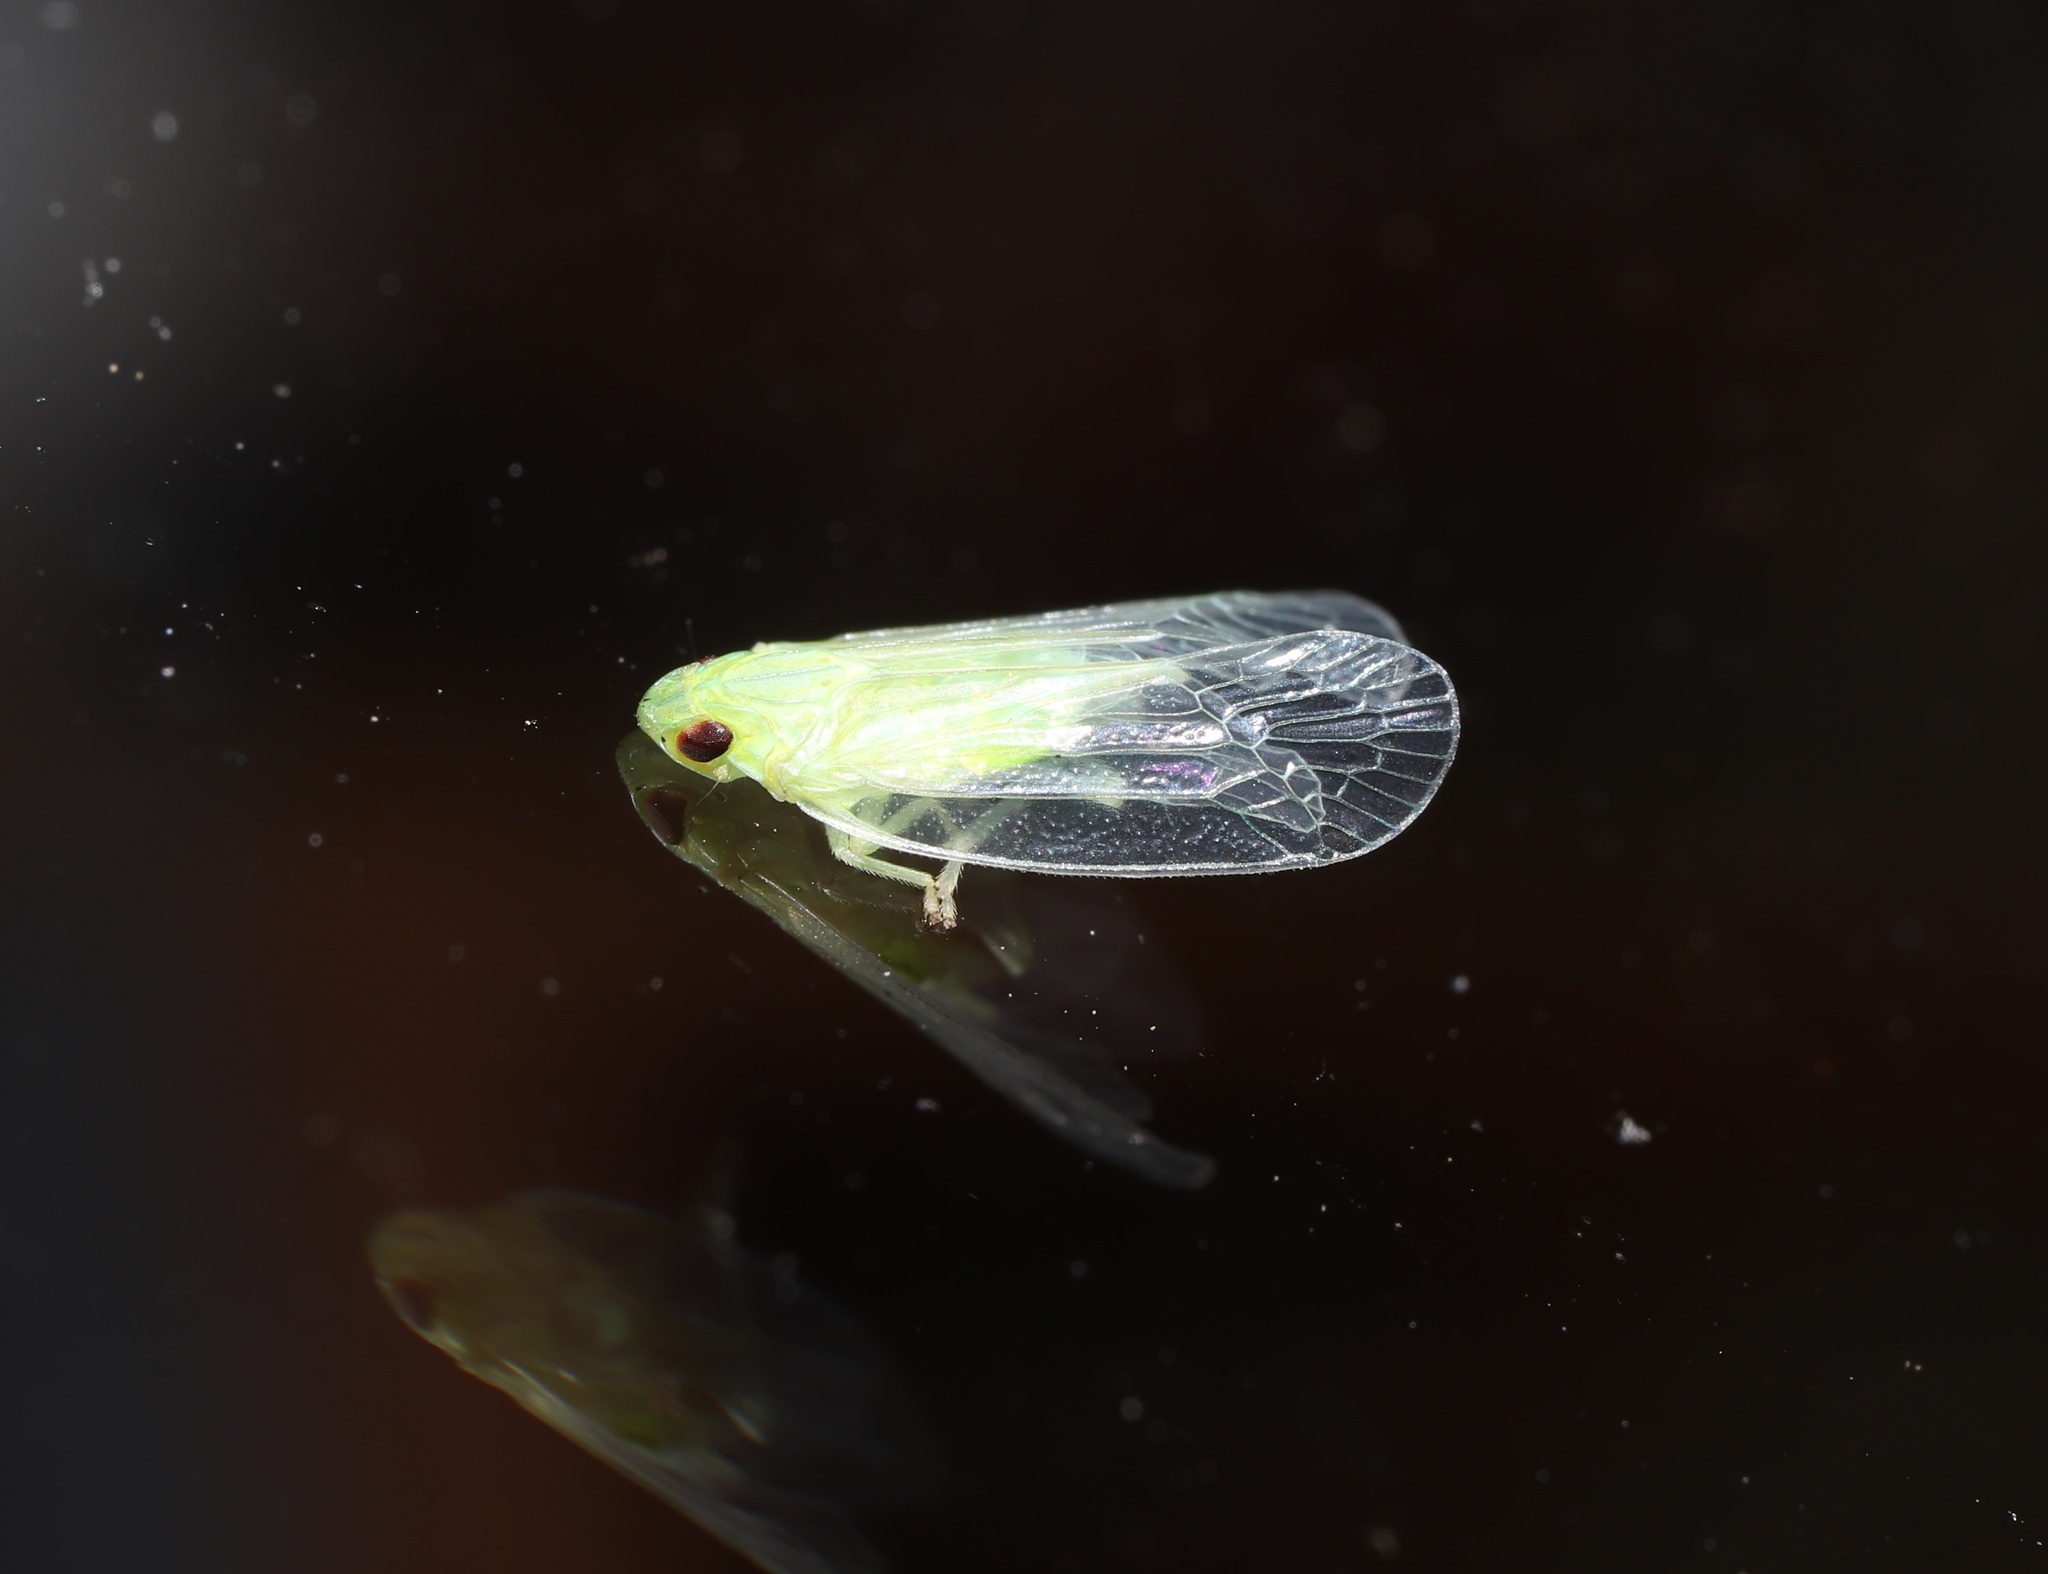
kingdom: Animalia
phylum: Arthropoda
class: Insecta
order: Hemiptera
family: Tropiduchidae
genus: Kallitaxila
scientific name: Kallitaxila sinica
